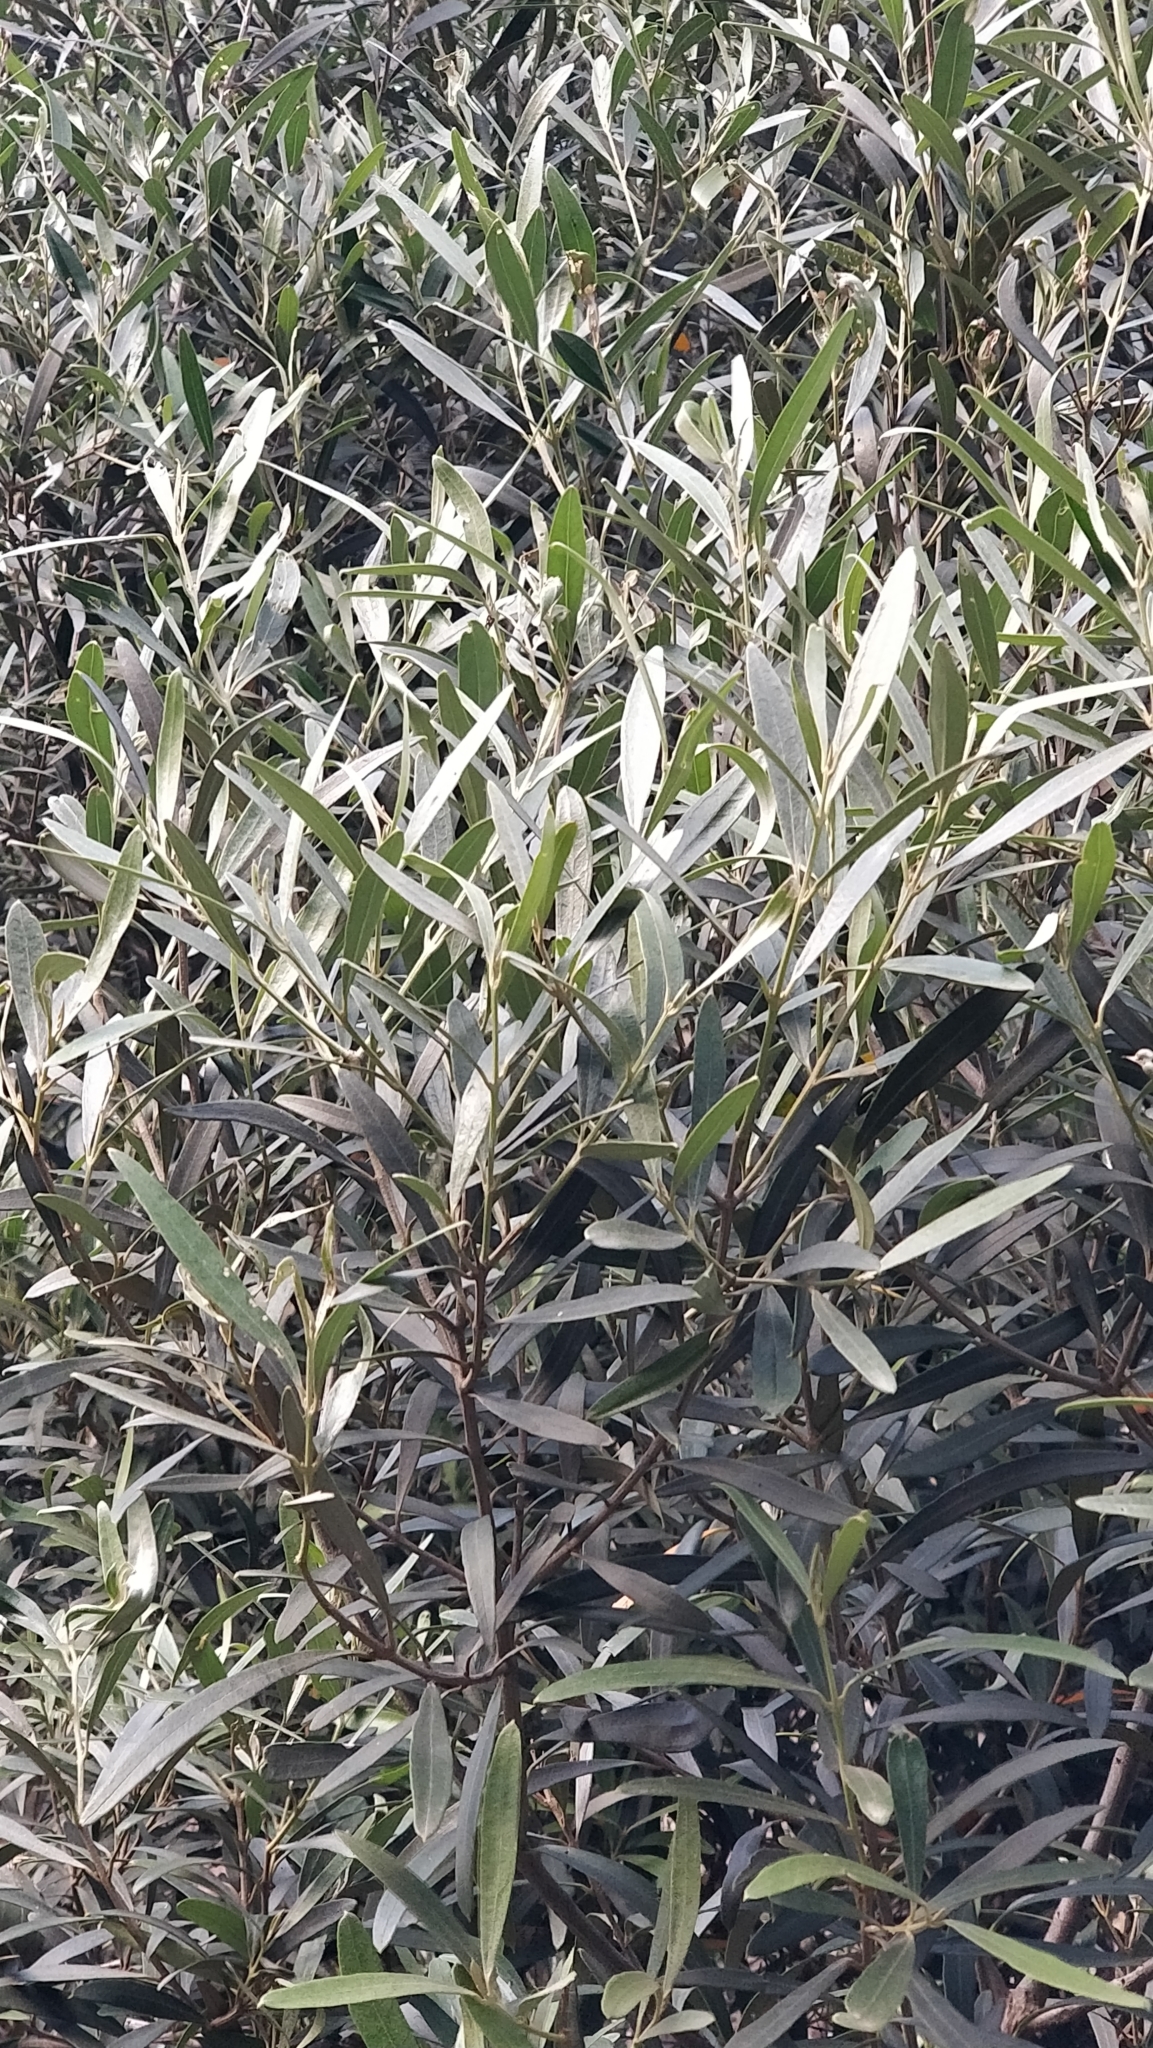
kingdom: Plantae
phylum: Tracheophyta
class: Magnoliopsida
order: Lamiales
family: Oleaceae
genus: Olea
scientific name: Olea europaea
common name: Olive
